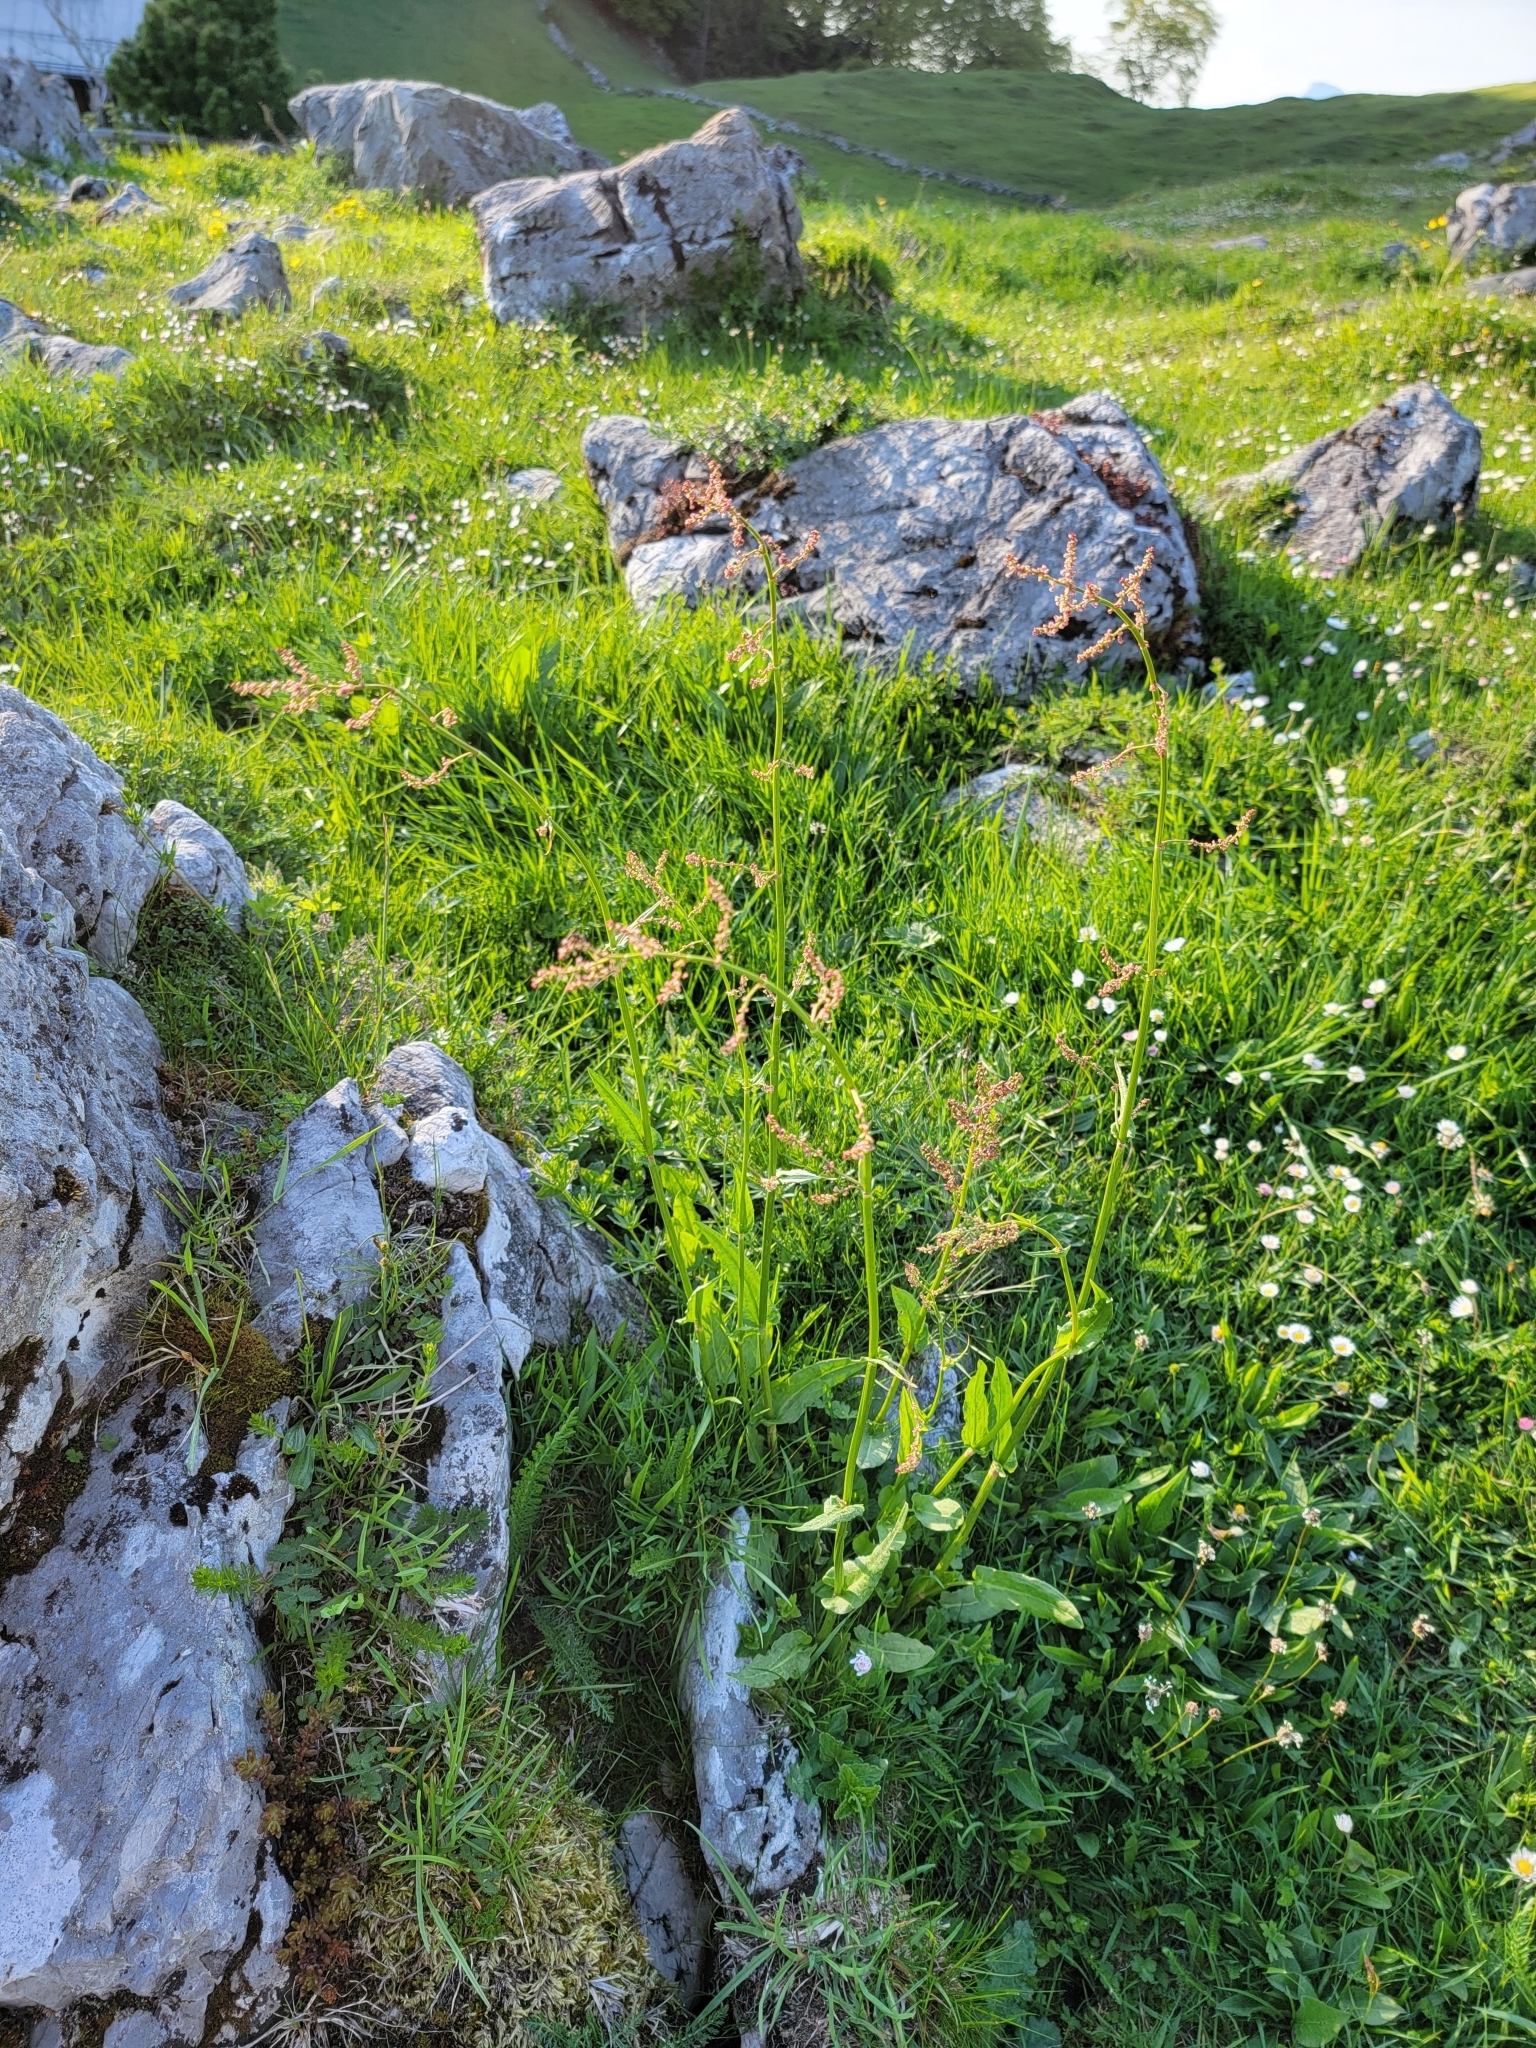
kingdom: Plantae
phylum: Tracheophyta
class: Magnoliopsida
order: Caryophyllales
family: Polygonaceae
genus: Rumex
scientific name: Rumex acetosa
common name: Garden sorrel
